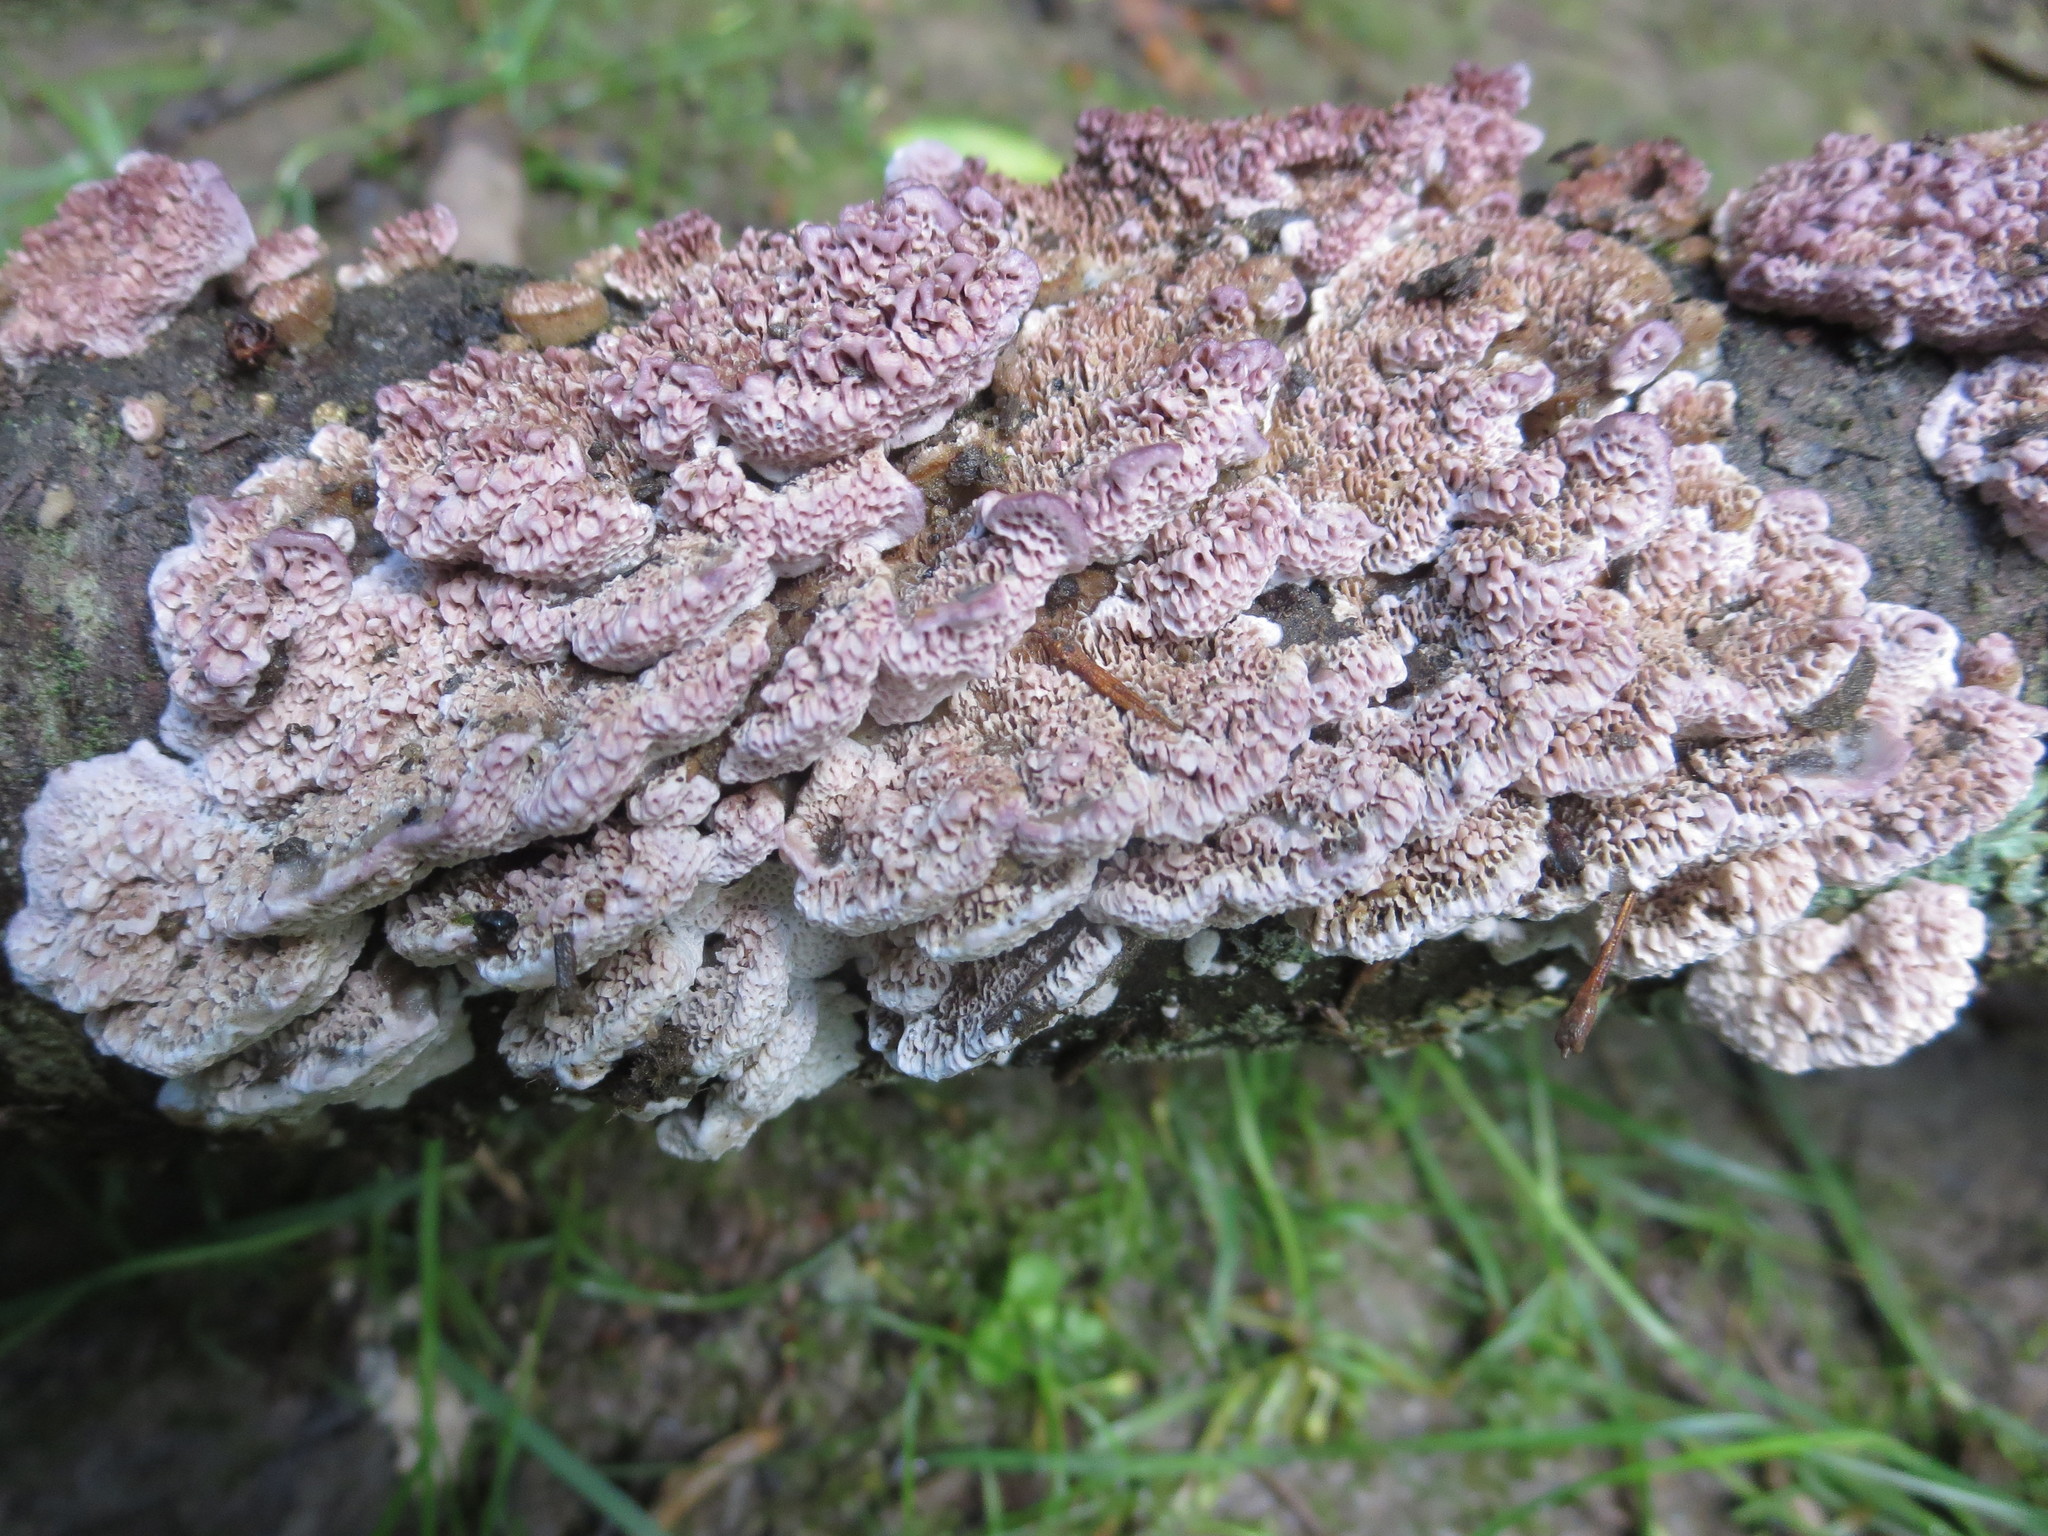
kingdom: Fungi
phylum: Basidiomycota
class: Agaricomycetes
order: Hymenochaetales
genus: Trichaptum
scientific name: Trichaptum biforme
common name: Violet-toothed polypore
